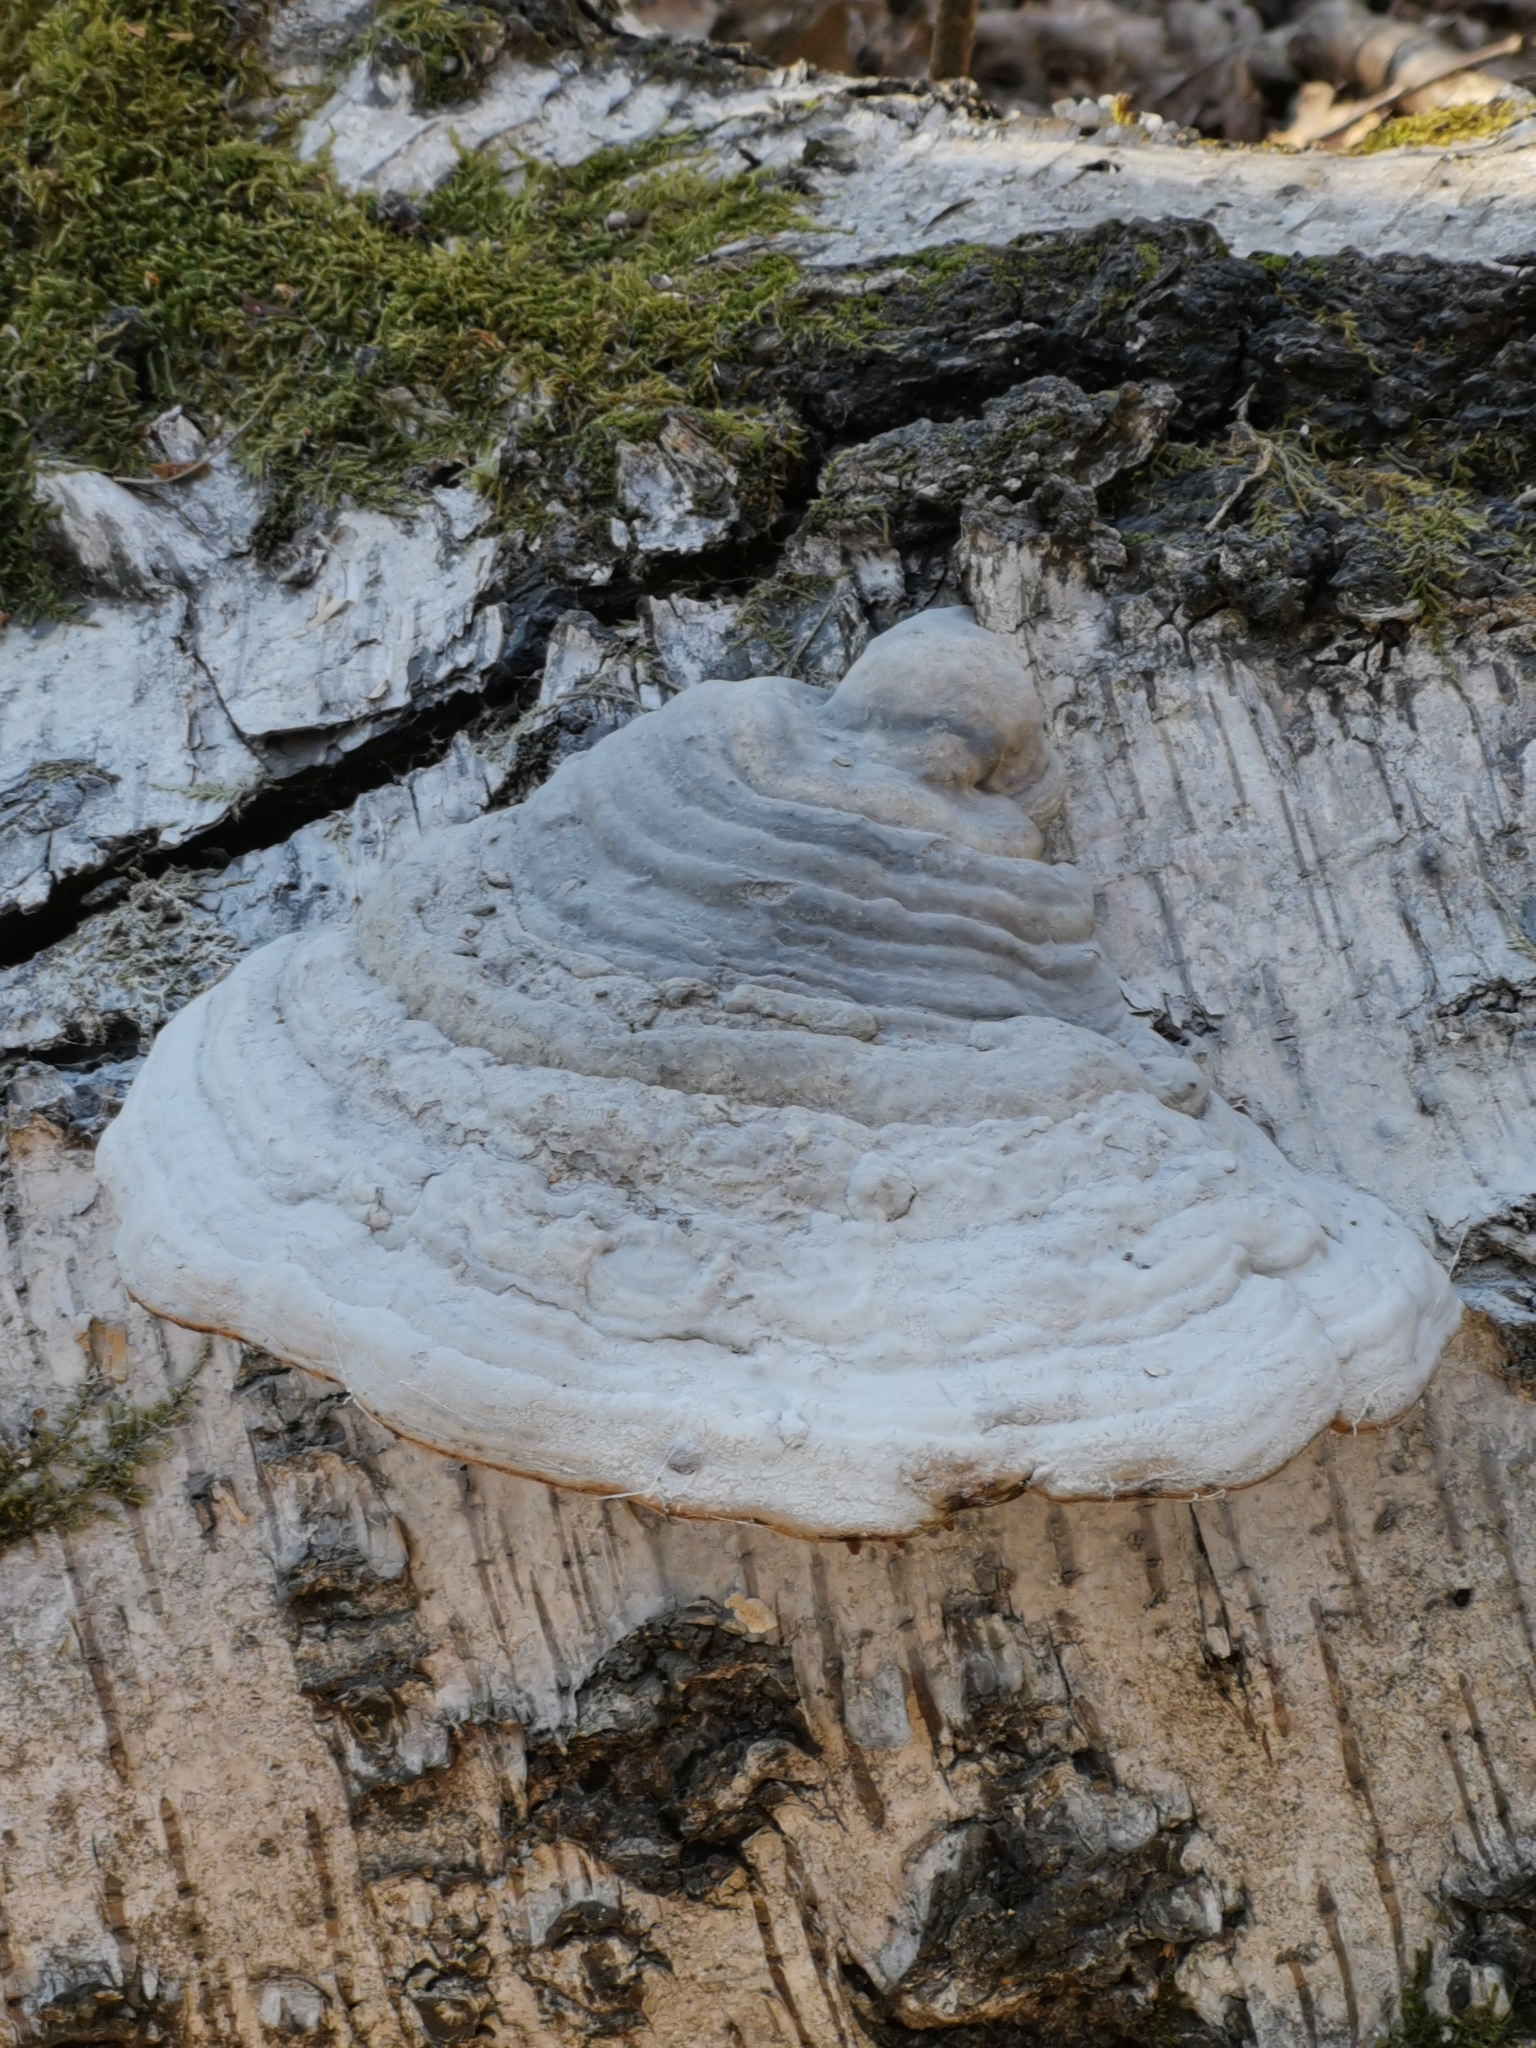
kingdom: Fungi
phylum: Basidiomycota
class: Agaricomycetes
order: Polyporales
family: Polyporaceae
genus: Fomes
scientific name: Fomes fomentarius
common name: Hoof fungus
